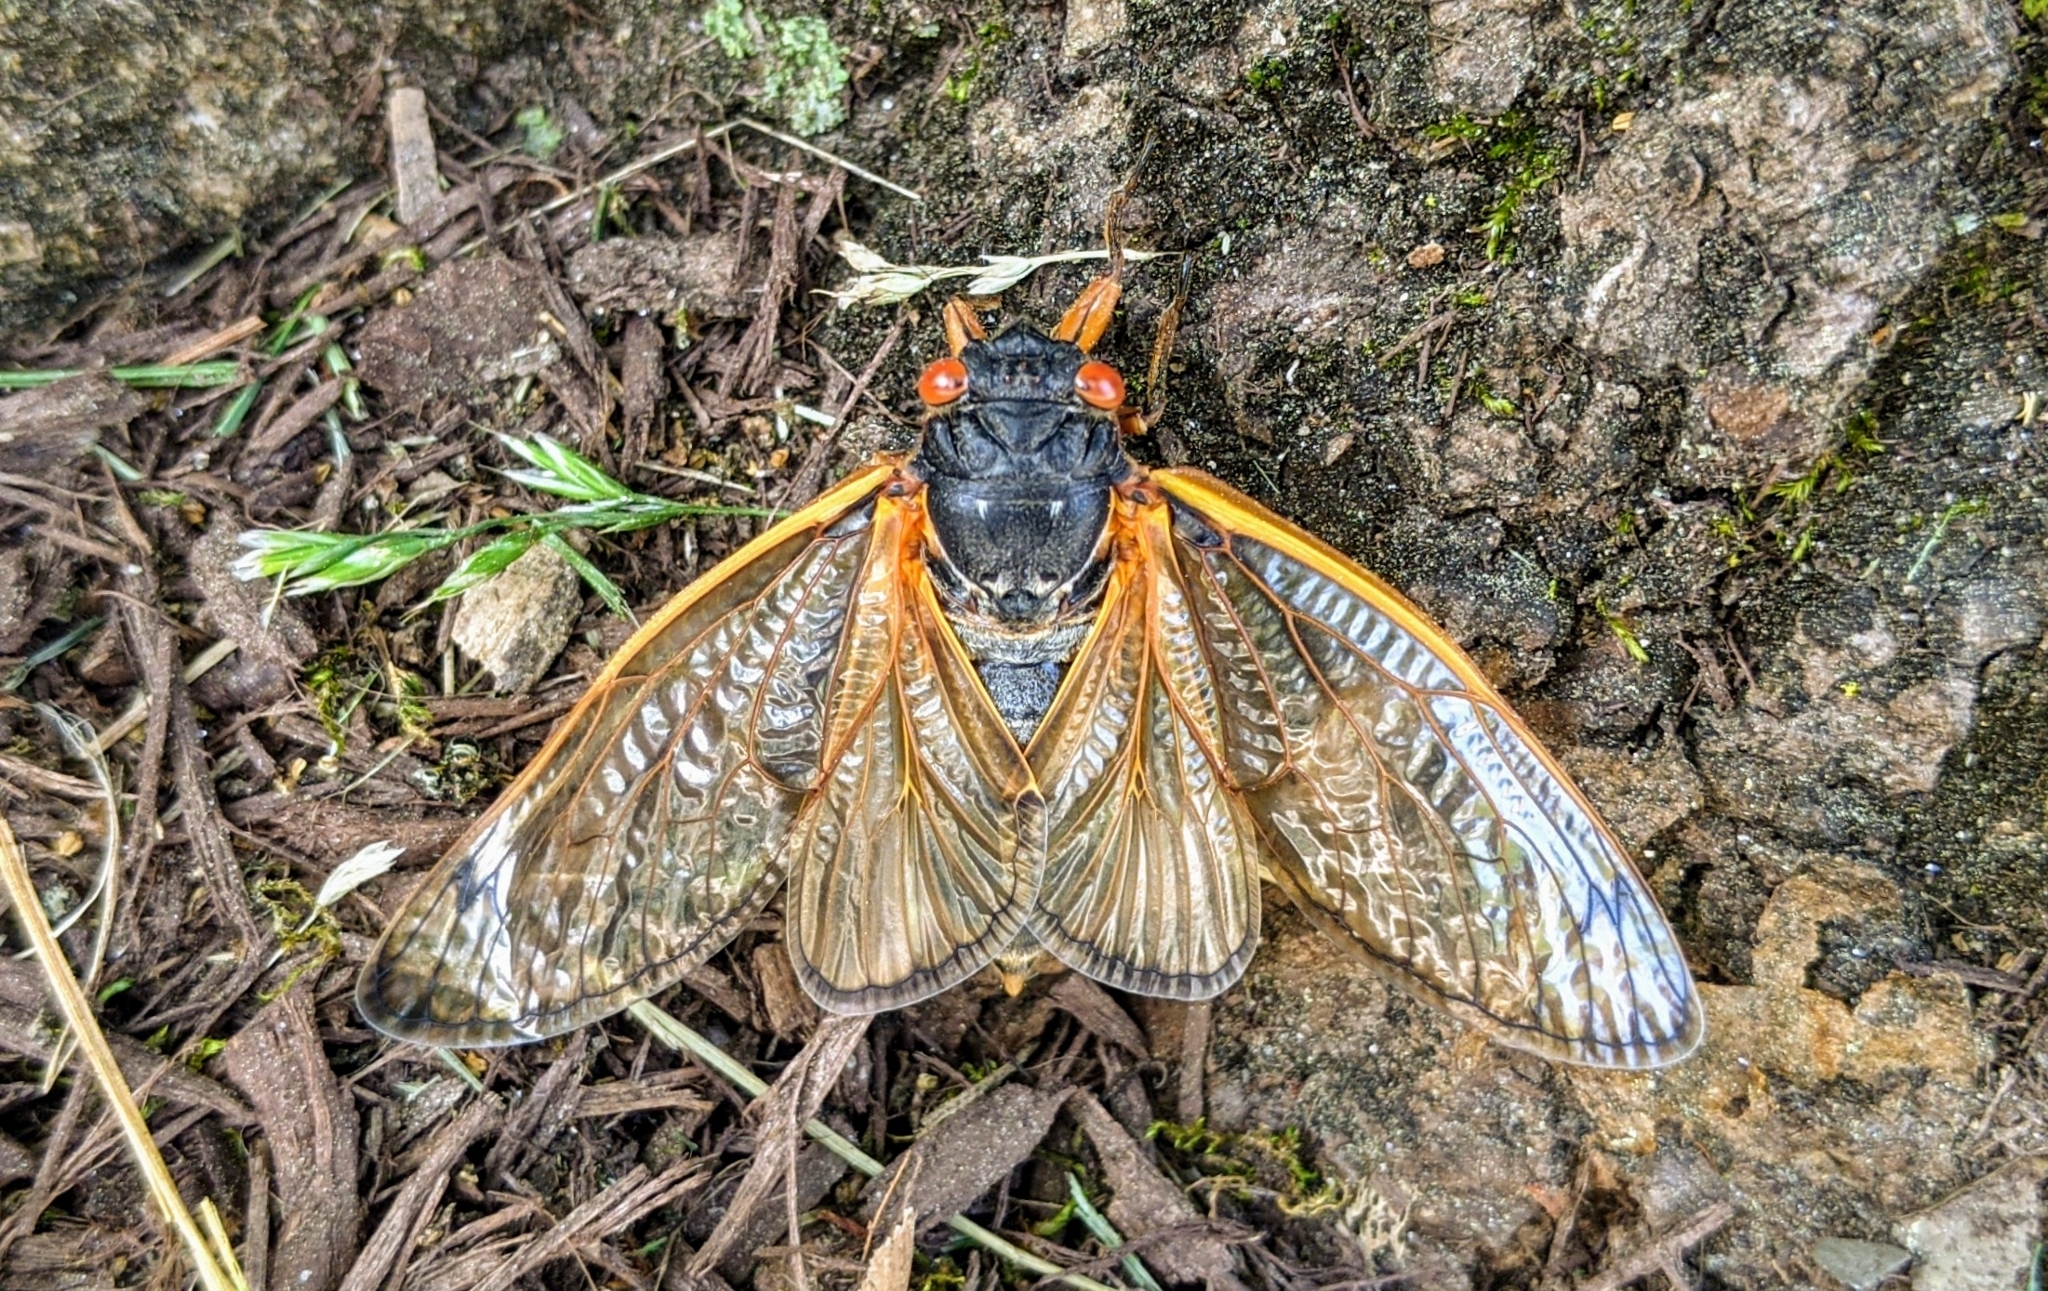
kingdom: Animalia
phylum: Arthropoda
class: Insecta
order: Hemiptera
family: Cicadidae
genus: Magicicada
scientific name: Magicicada
